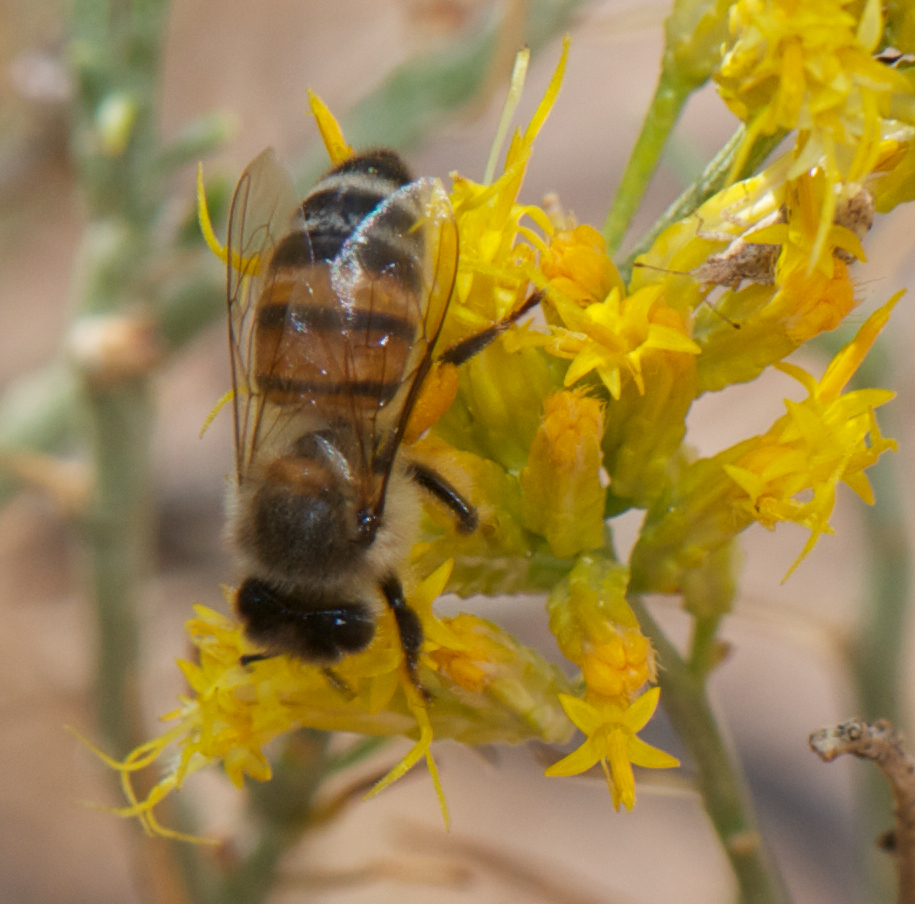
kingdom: Animalia
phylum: Arthropoda
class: Insecta
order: Hymenoptera
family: Apidae
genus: Apis
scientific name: Apis mellifera
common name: Honey bee
